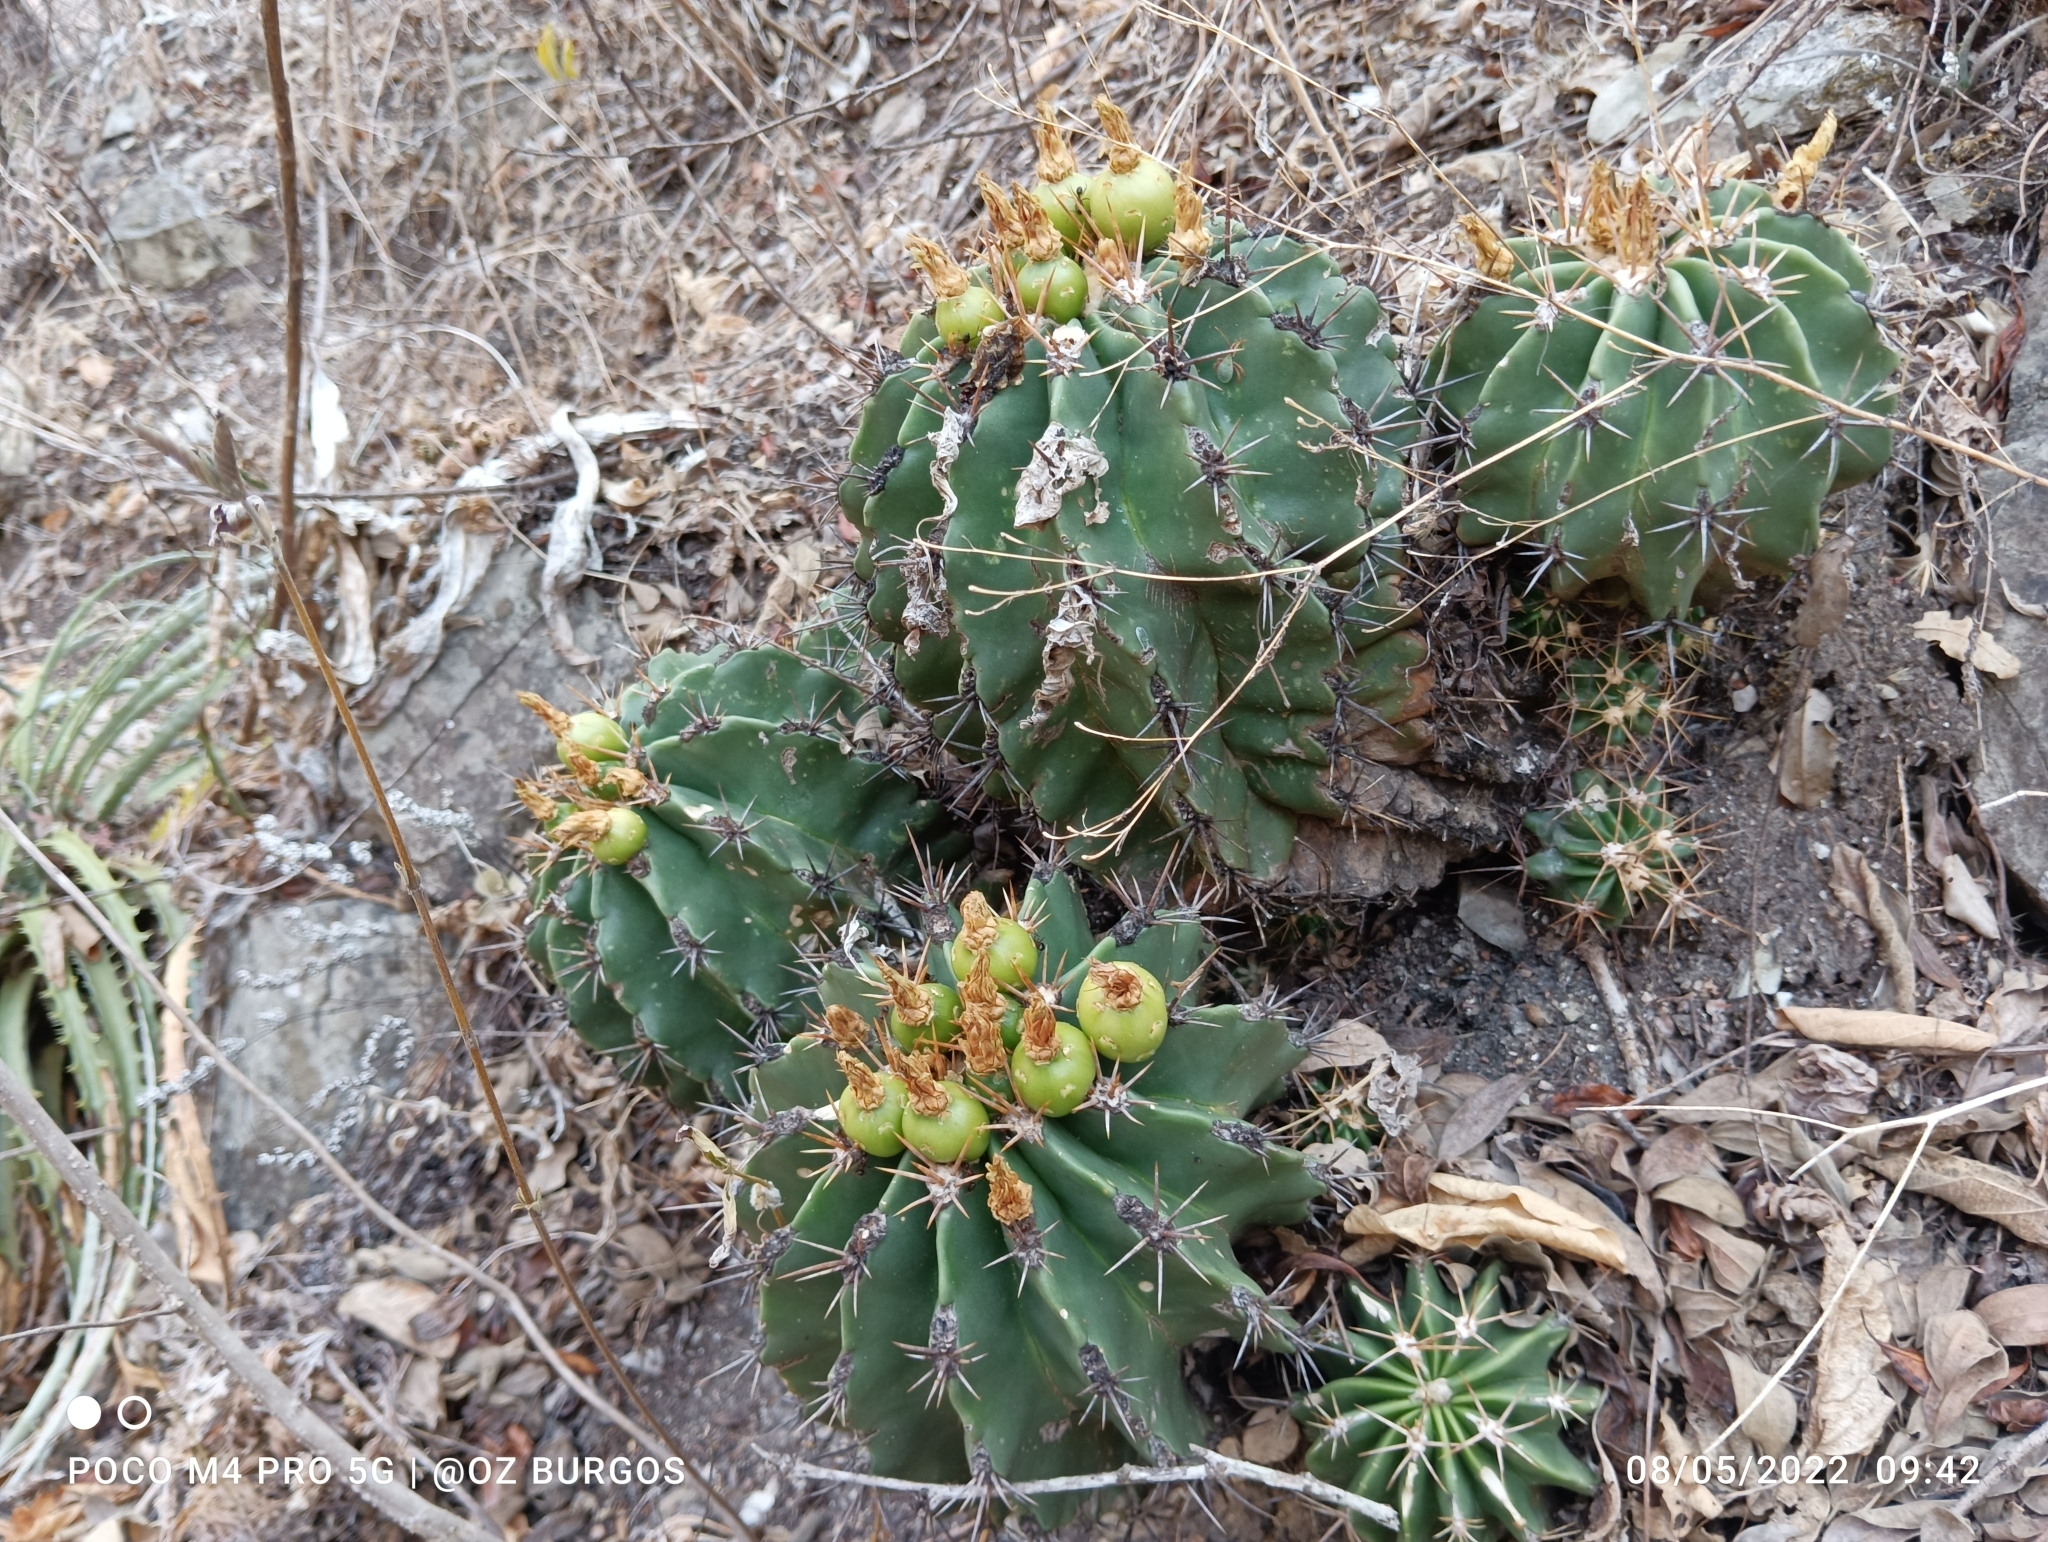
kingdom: Plantae
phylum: Tracheophyta
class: Magnoliopsida
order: Caryophyllales
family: Cactaceae
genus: Parrycactus
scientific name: Parrycactus echidne
